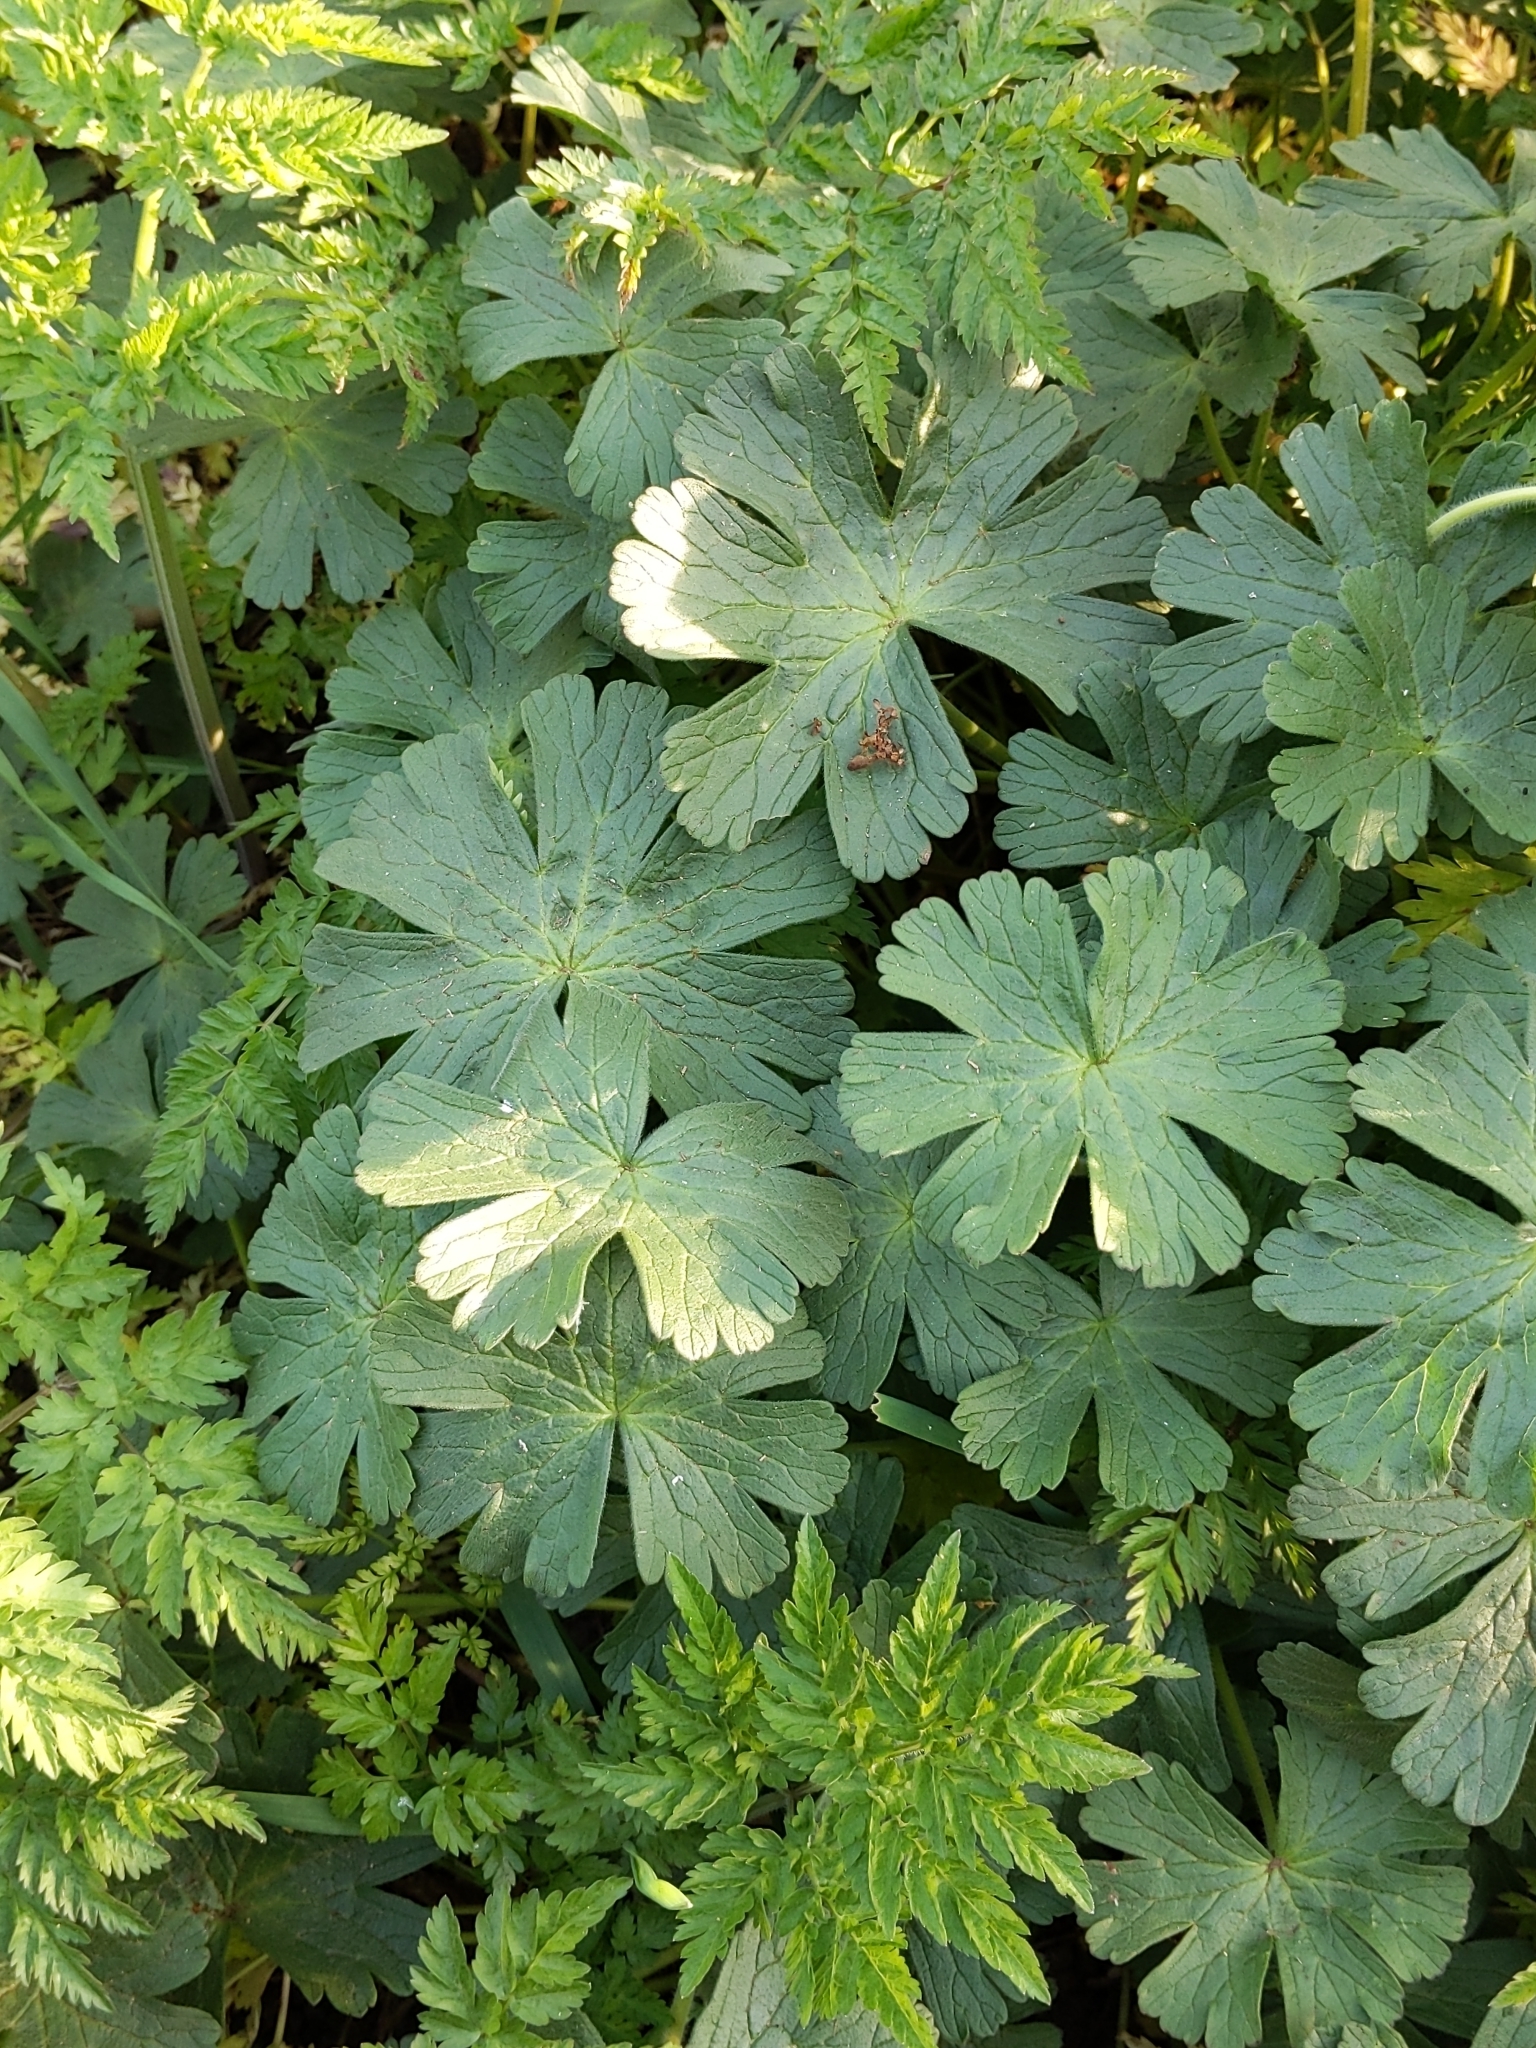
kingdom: Plantae
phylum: Tracheophyta
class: Magnoliopsida
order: Geraniales
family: Geraniaceae
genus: Geranium
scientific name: Geranium pyrenaicum
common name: Hedgerow crane's-bill
